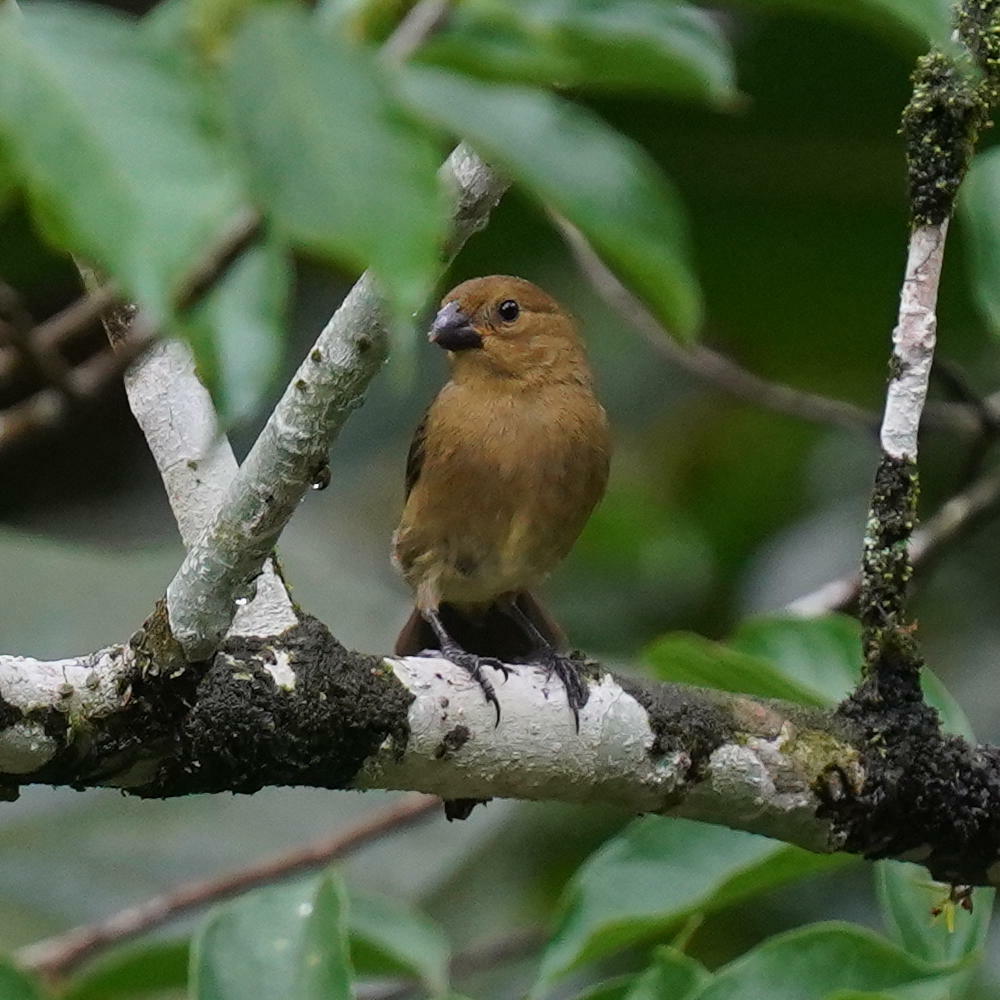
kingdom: Animalia
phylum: Chordata
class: Aves
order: Passeriformes
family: Thraupidae
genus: Sporophila
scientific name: Sporophila corvina
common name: Variable seedeater
